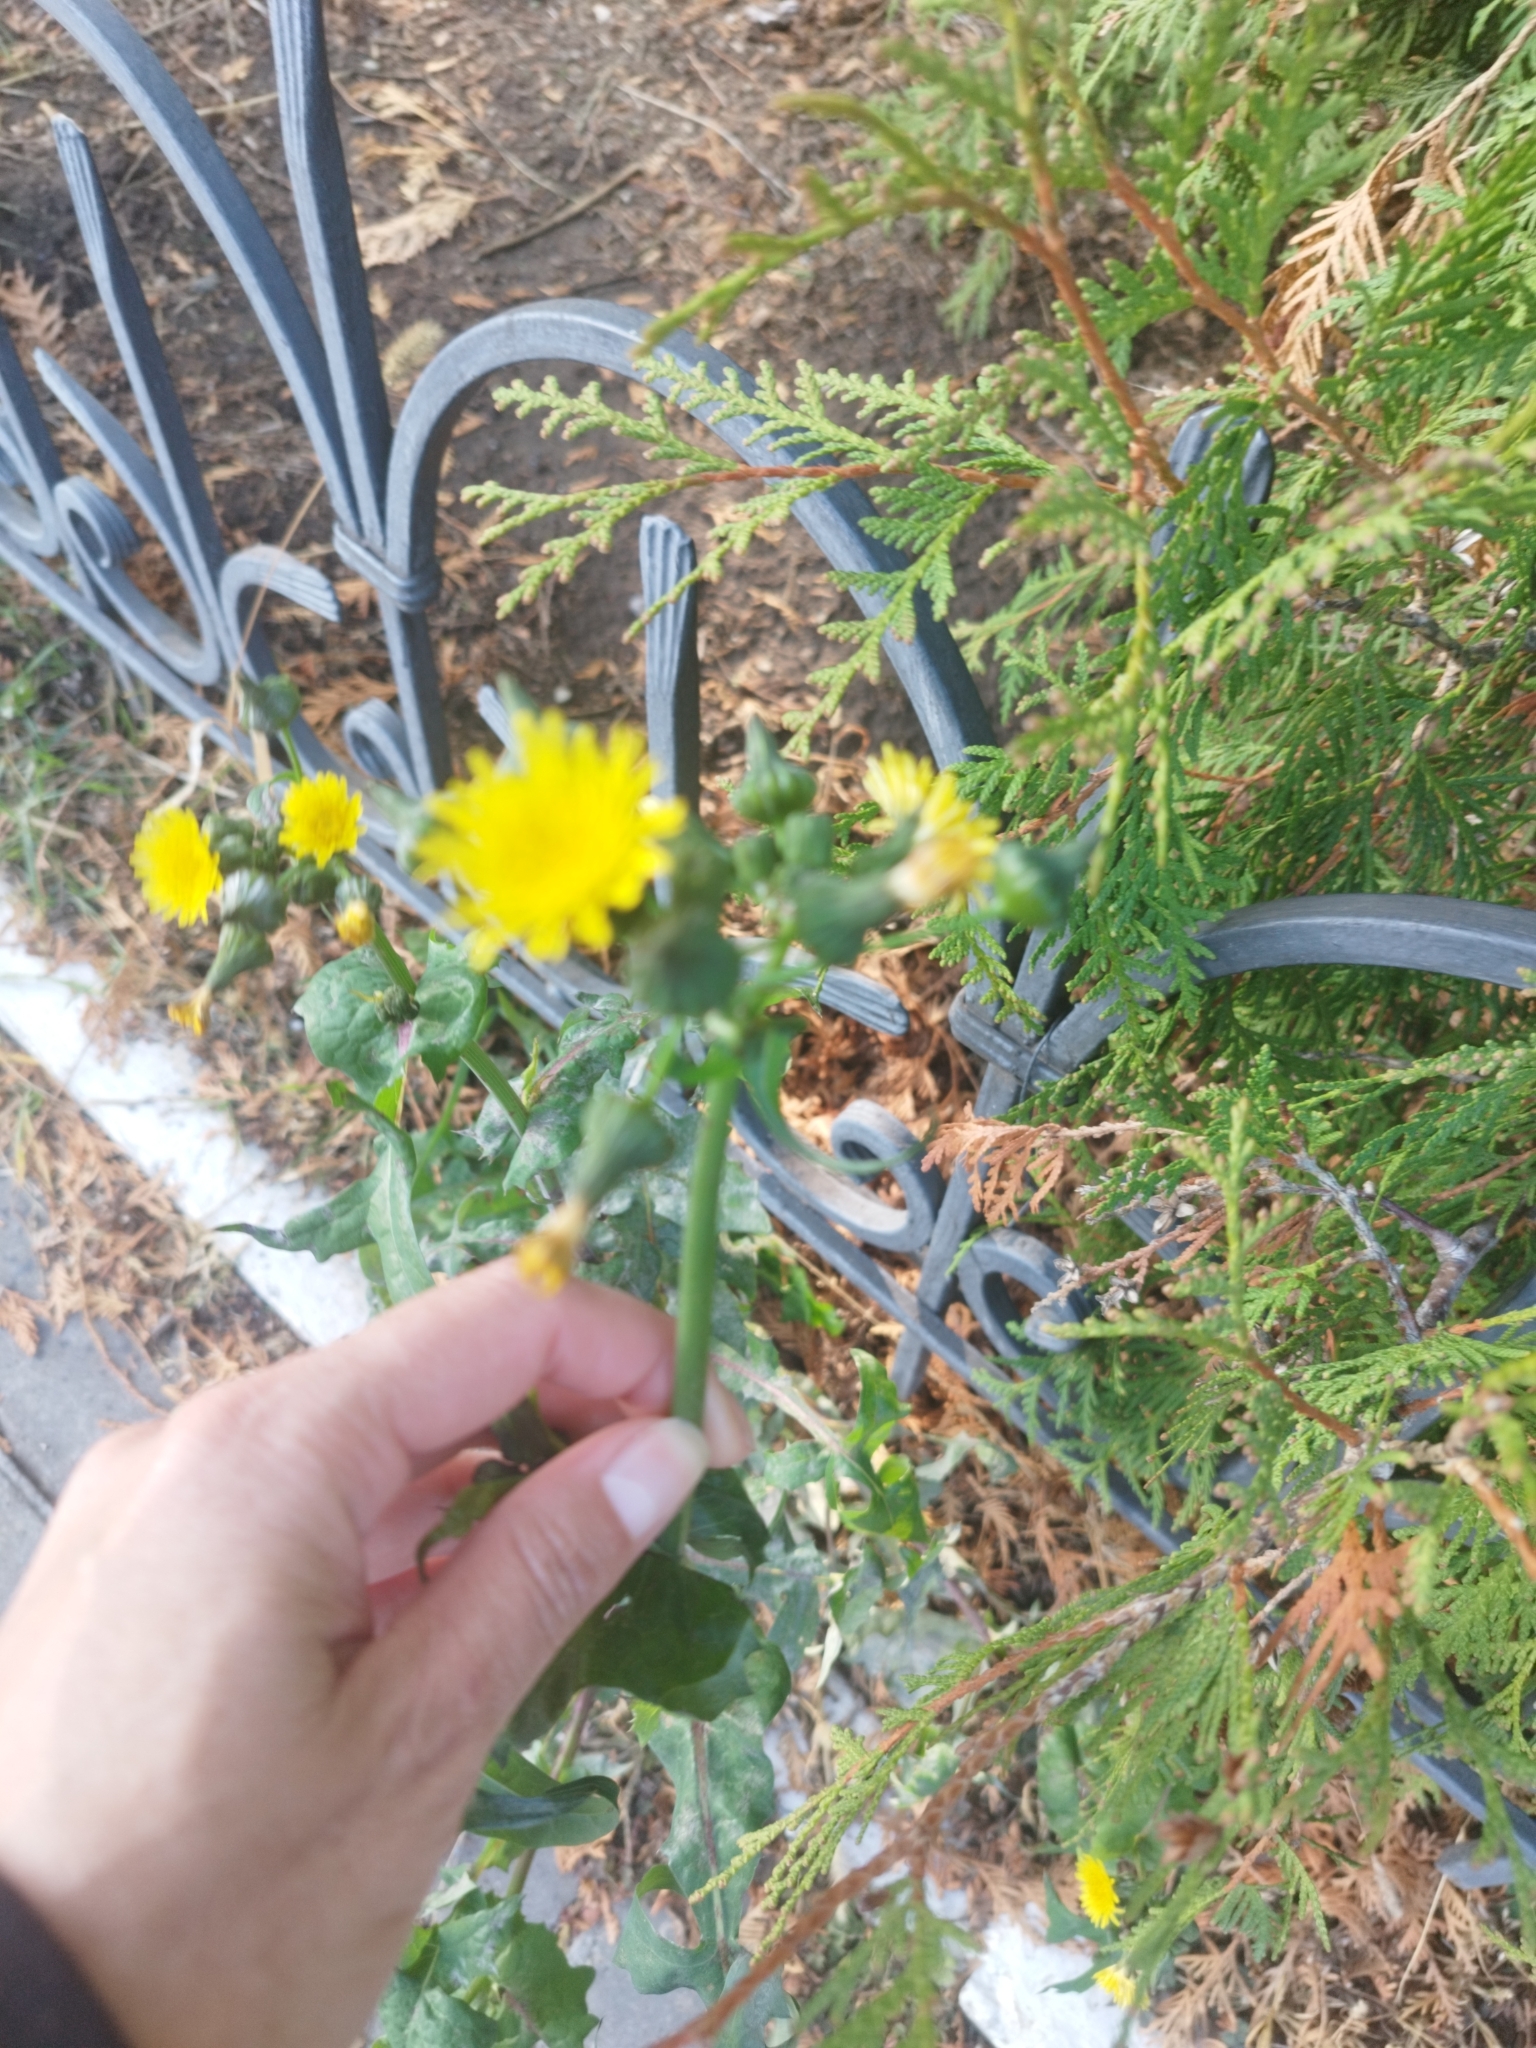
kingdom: Plantae
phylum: Tracheophyta
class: Magnoliopsida
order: Asterales
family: Asteraceae
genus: Sonchus
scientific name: Sonchus oleraceus
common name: Common sowthistle
